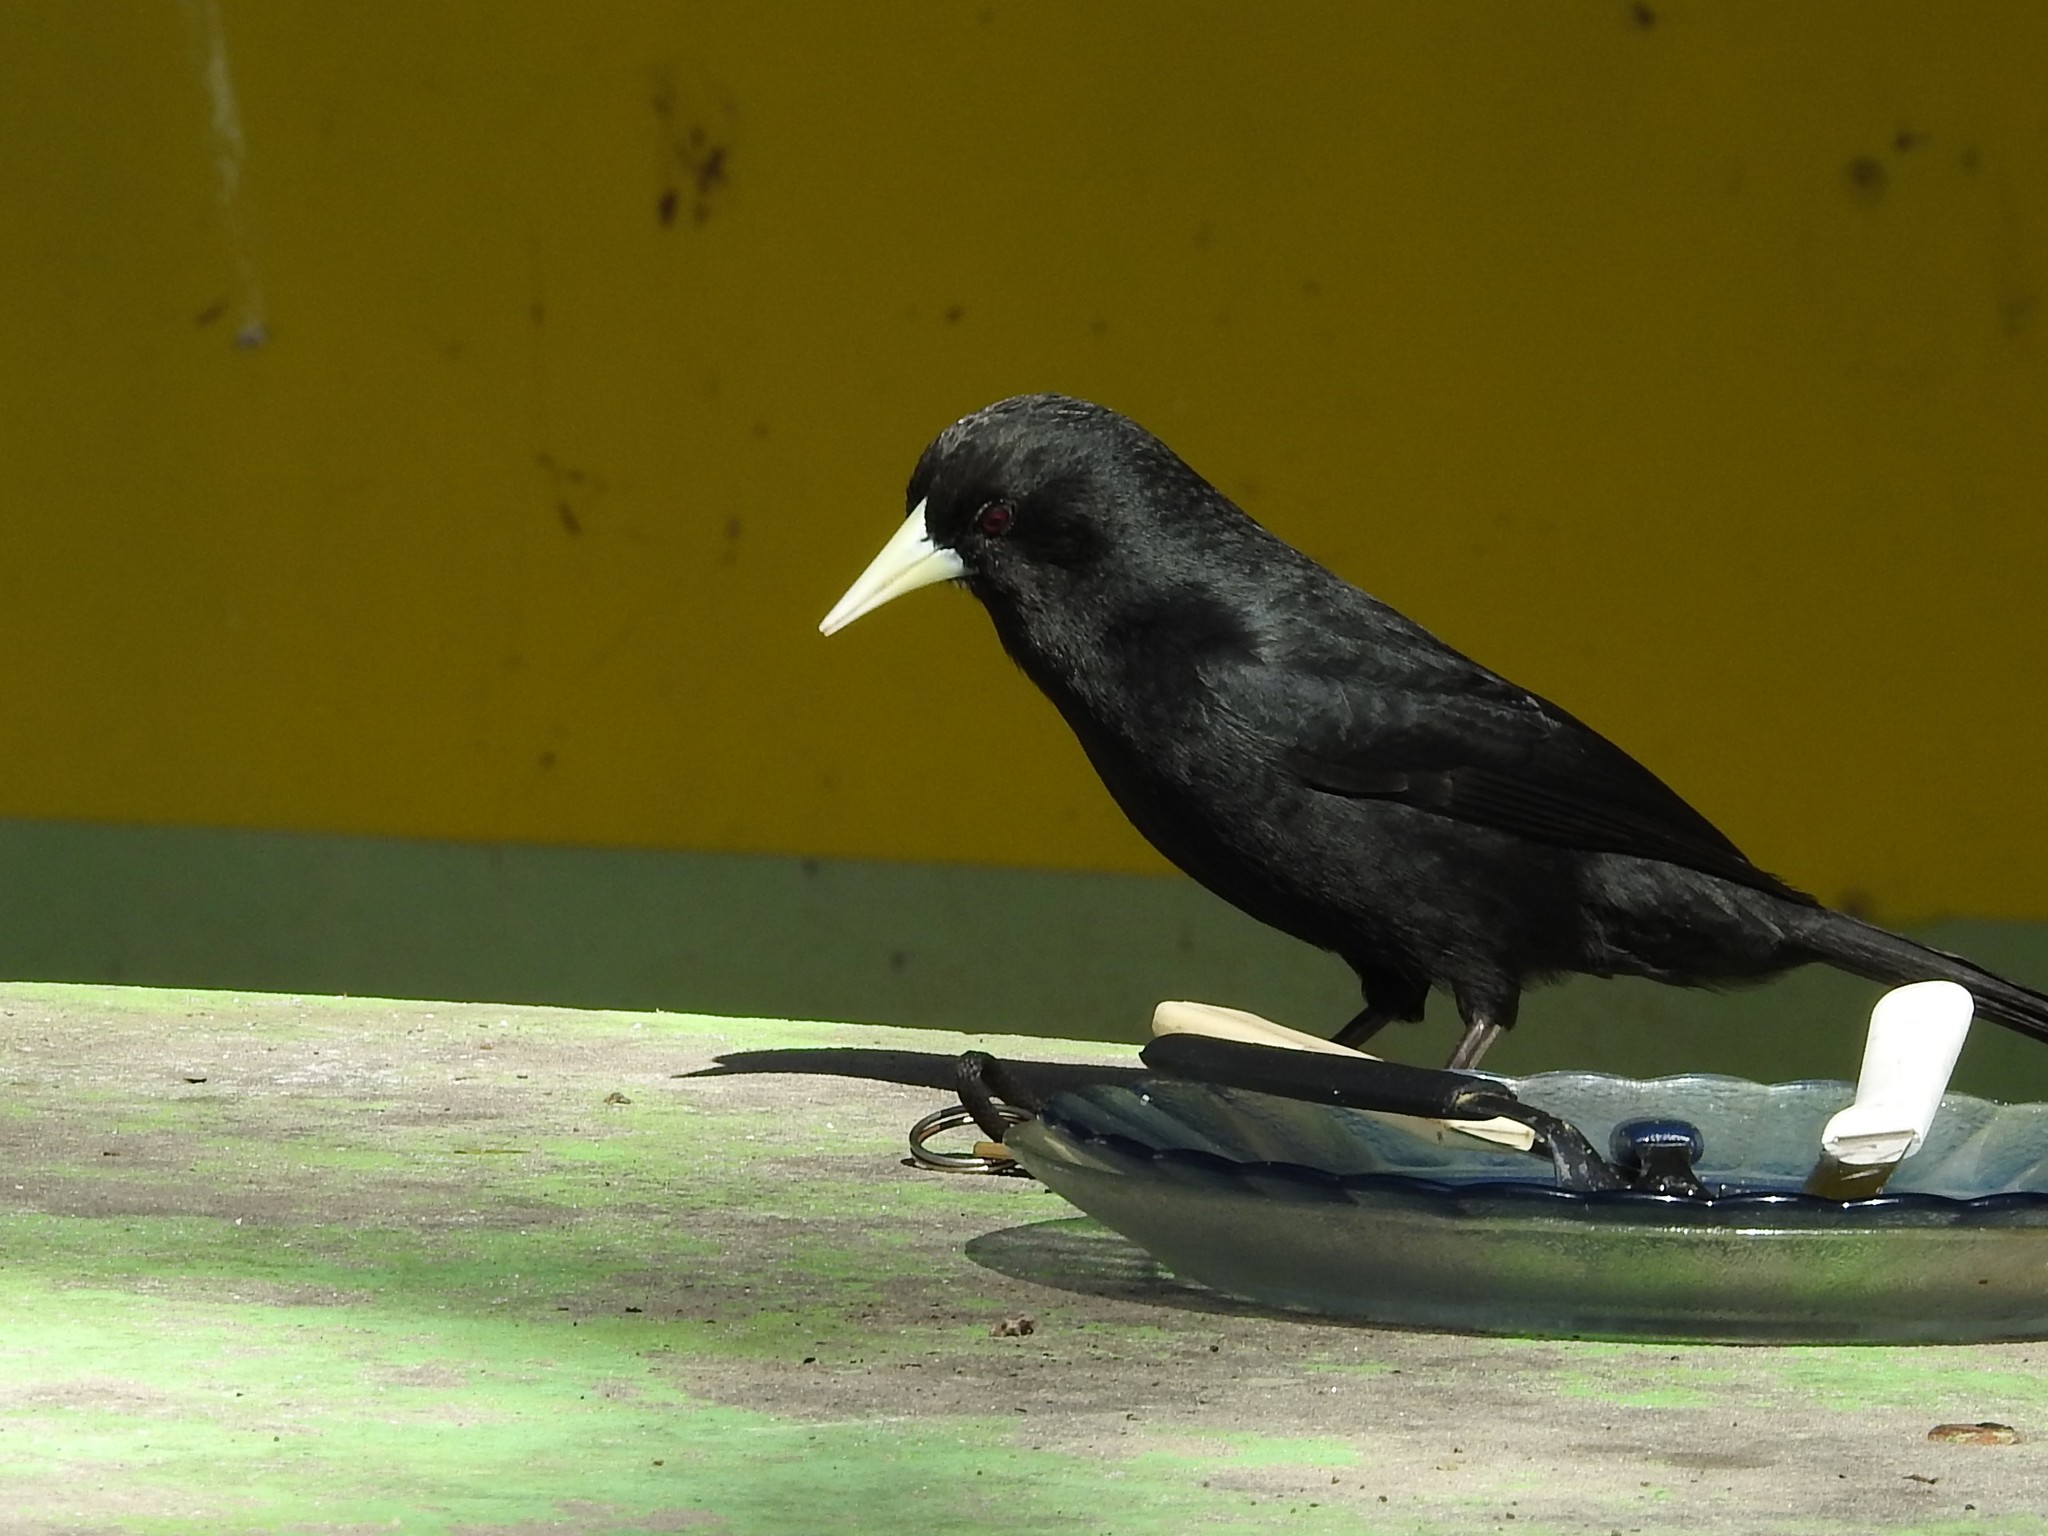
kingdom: Animalia
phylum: Chordata
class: Aves
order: Passeriformes
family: Icteridae
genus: Cacicus
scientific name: Cacicus solitarius
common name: Solitary cacique
